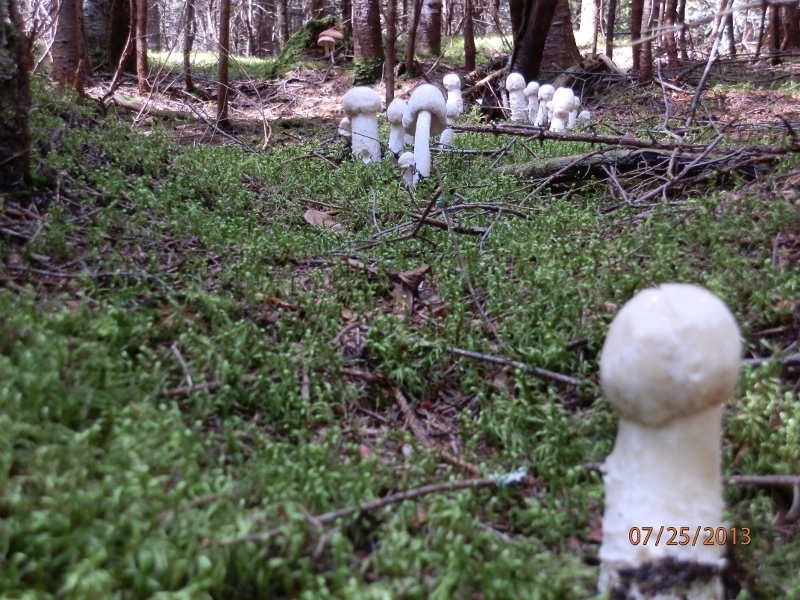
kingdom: Fungi
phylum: Ascomycota
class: Sordariomycetes
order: Hypocreales
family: Hypocreaceae
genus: Hypomyces
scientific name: Hypomyces hyalinus
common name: Amanita mold
